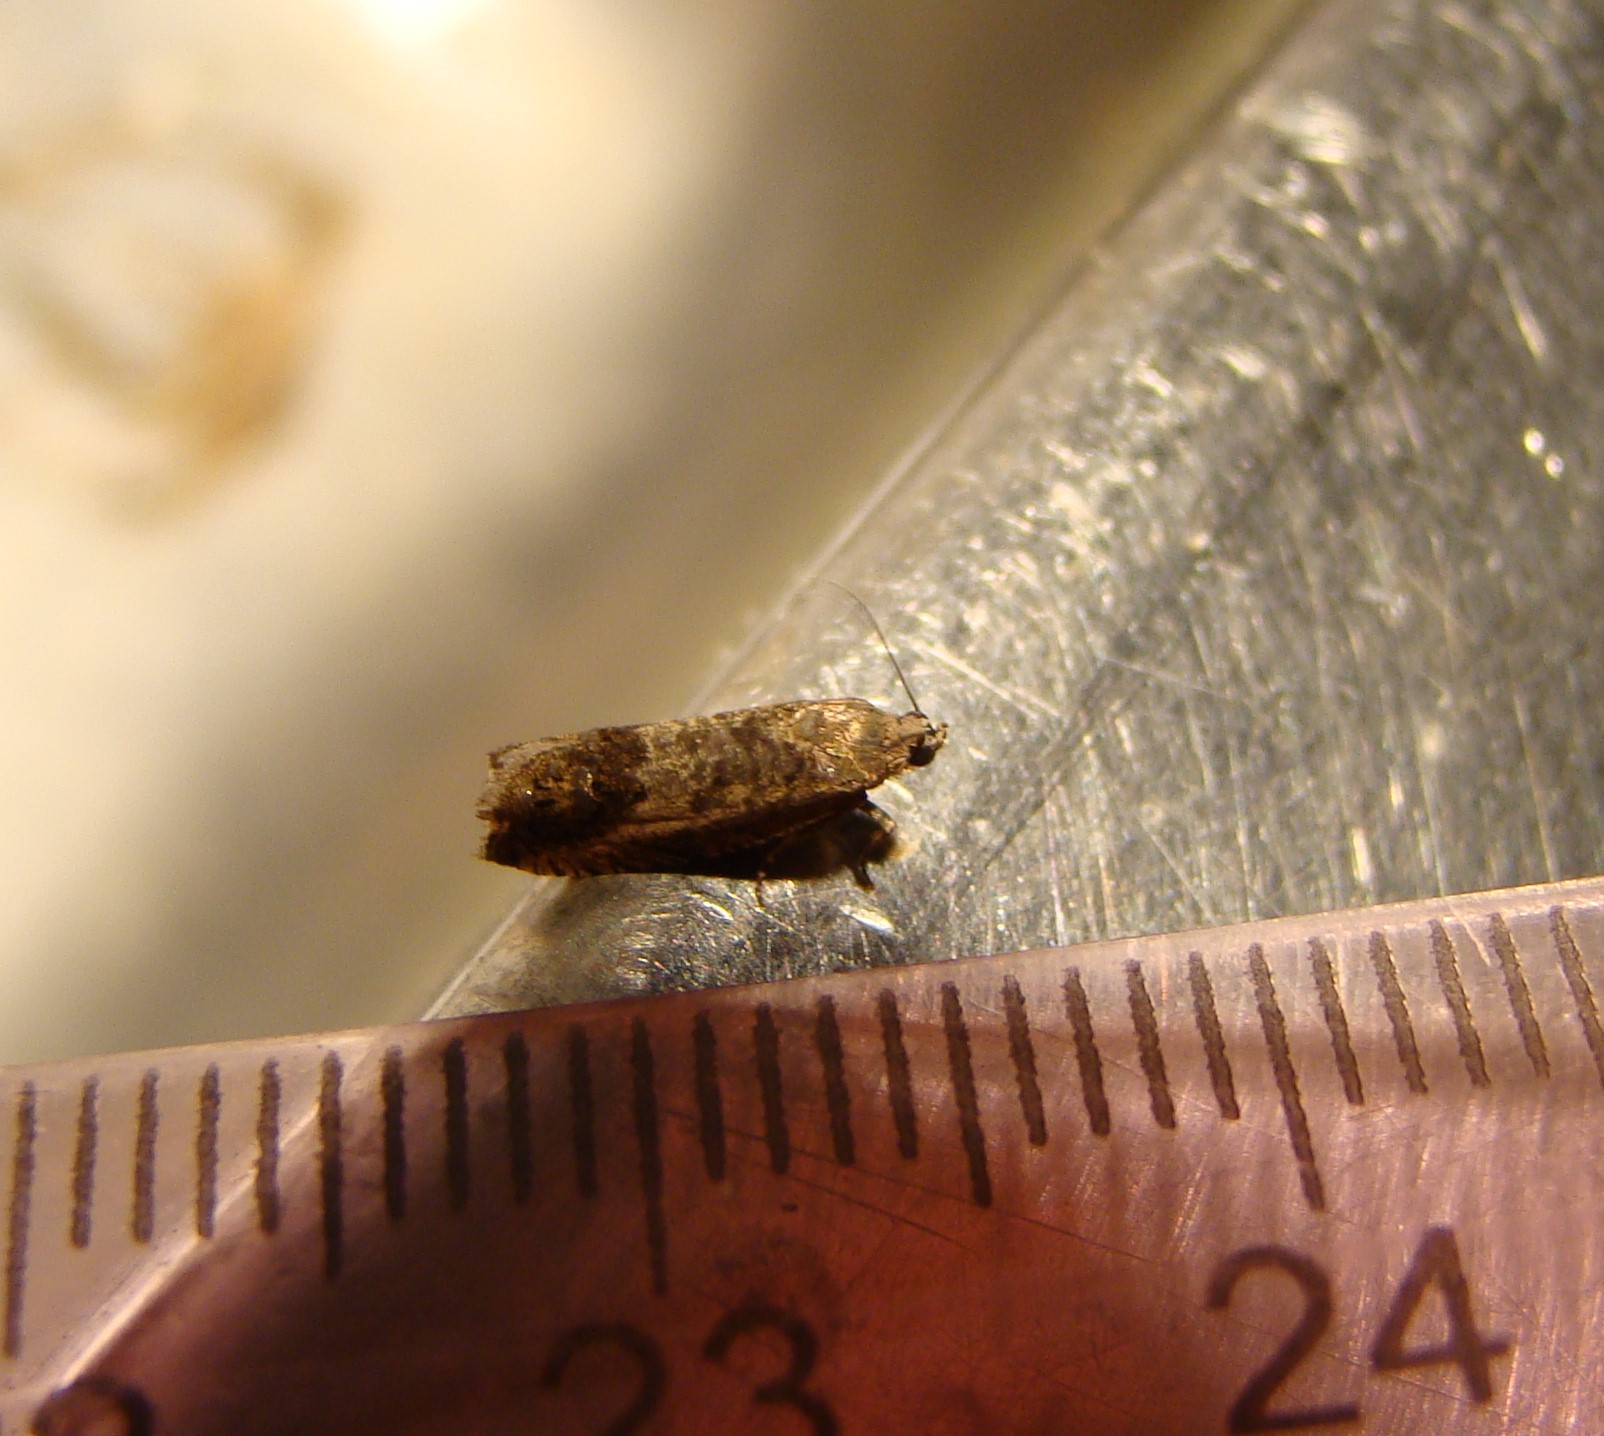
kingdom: Animalia
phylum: Arthropoda
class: Insecta
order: Lepidoptera
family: Tortricidae
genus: Cydia
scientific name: Cydia pomonella
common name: Codling moth
